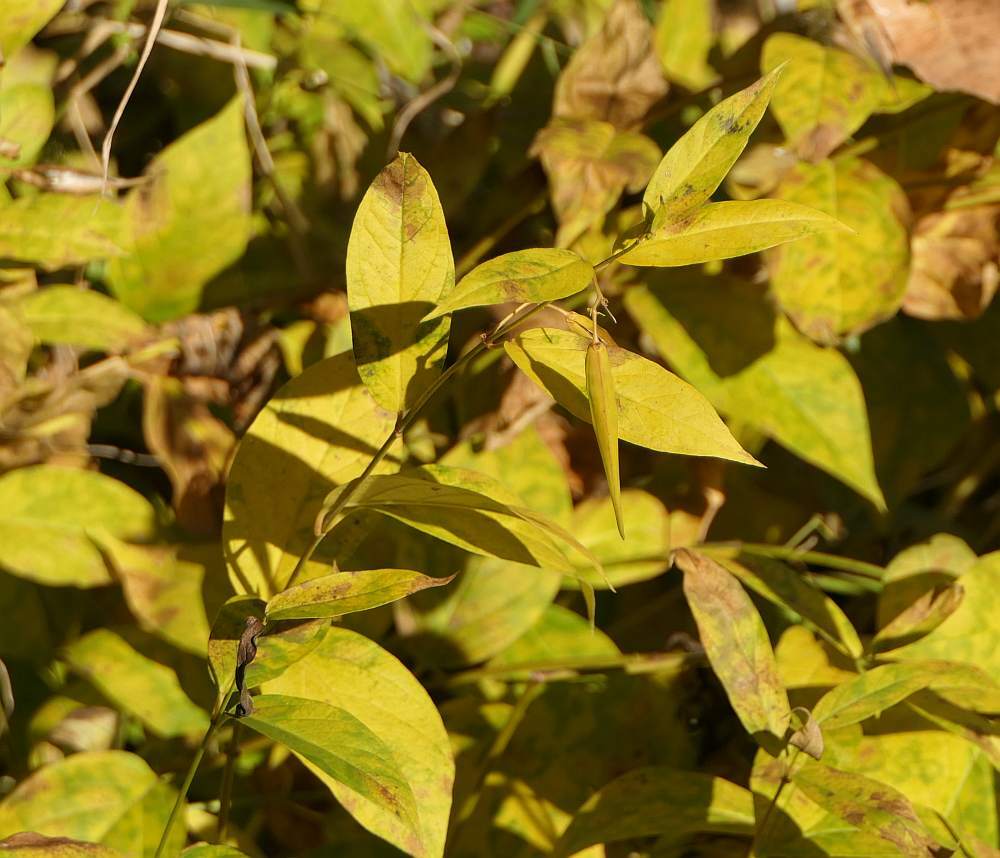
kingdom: Plantae
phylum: Tracheophyta
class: Magnoliopsida
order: Gentianales
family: Apocynaceae
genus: Vincetoxicum
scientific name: Vincetoxicum rossicum
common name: Dog-strangling vine
